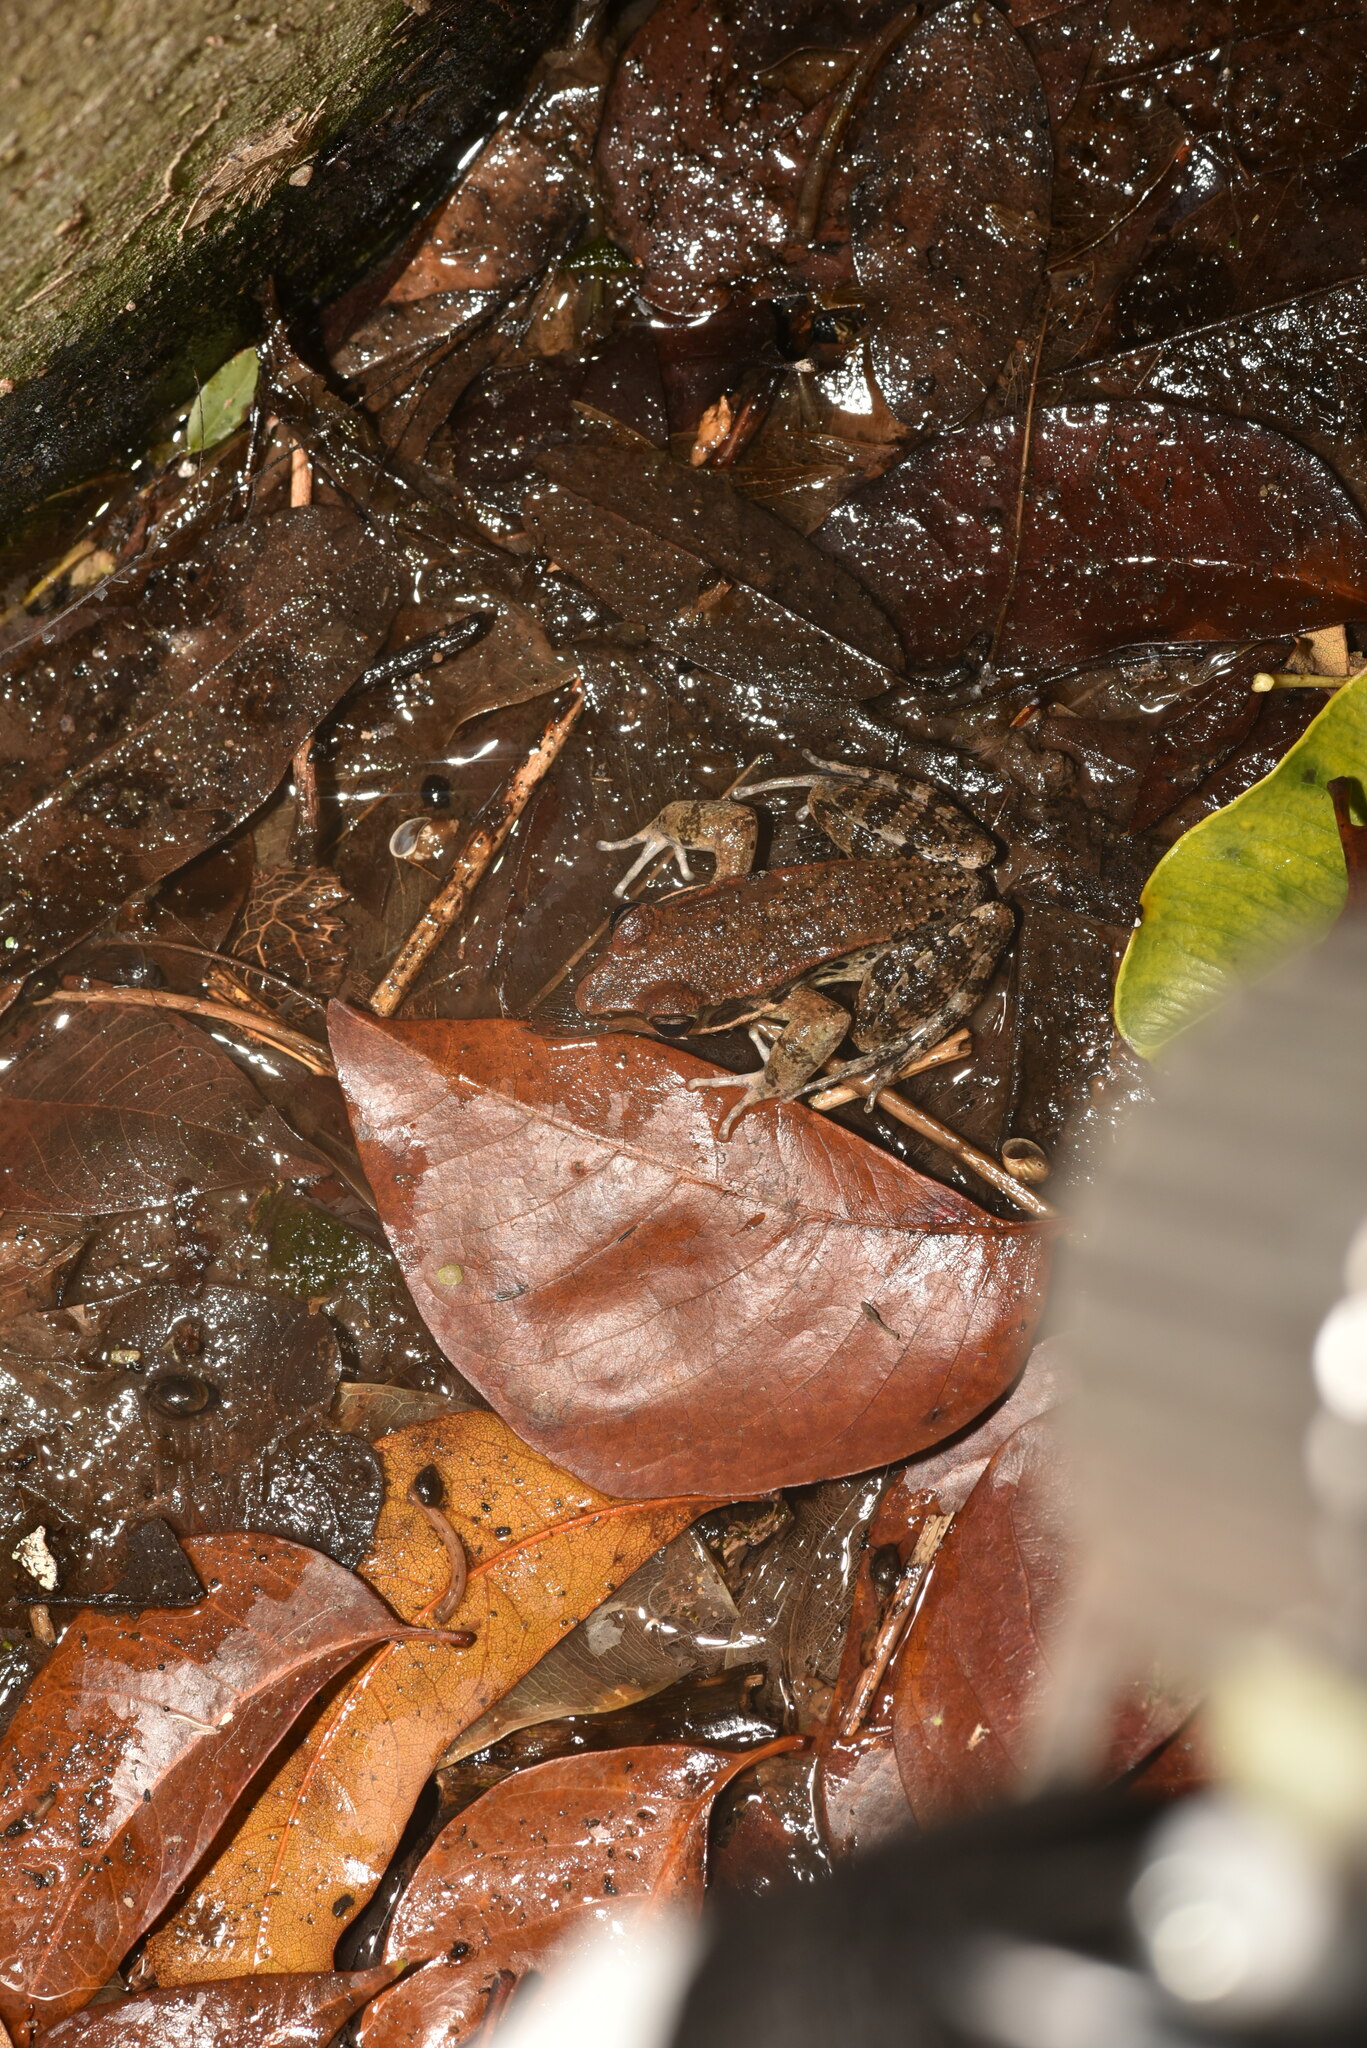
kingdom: Animalia
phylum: Chordata
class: Amphibia
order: Anura
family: Ranidae
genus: Hylarana
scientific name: Hylarana latouchii
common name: Broad-folded frog
